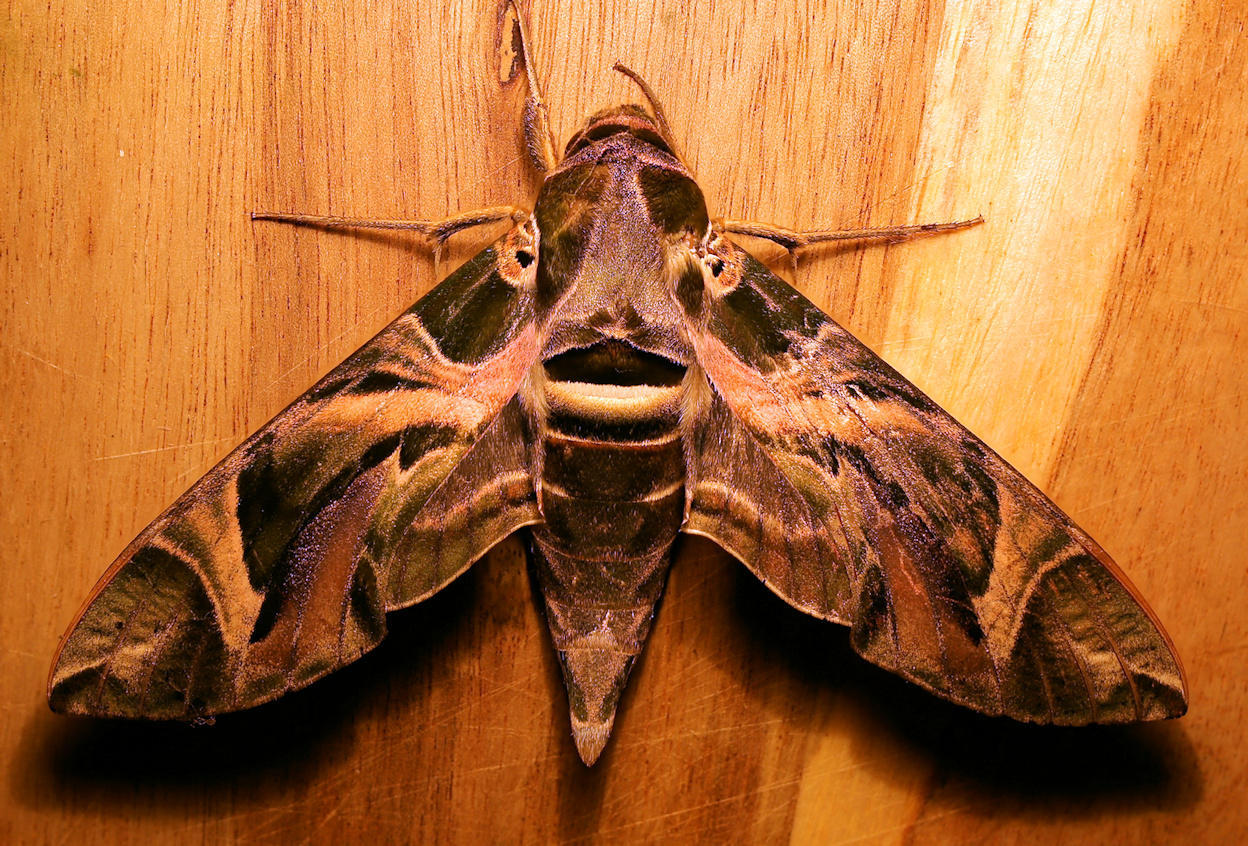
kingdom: Animalia
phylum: Arthropoda
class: Insecta
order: Lepidoptera
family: Sphingidae
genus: Daphnis
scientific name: Daphnis nerii
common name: Oleander hawk-moth
